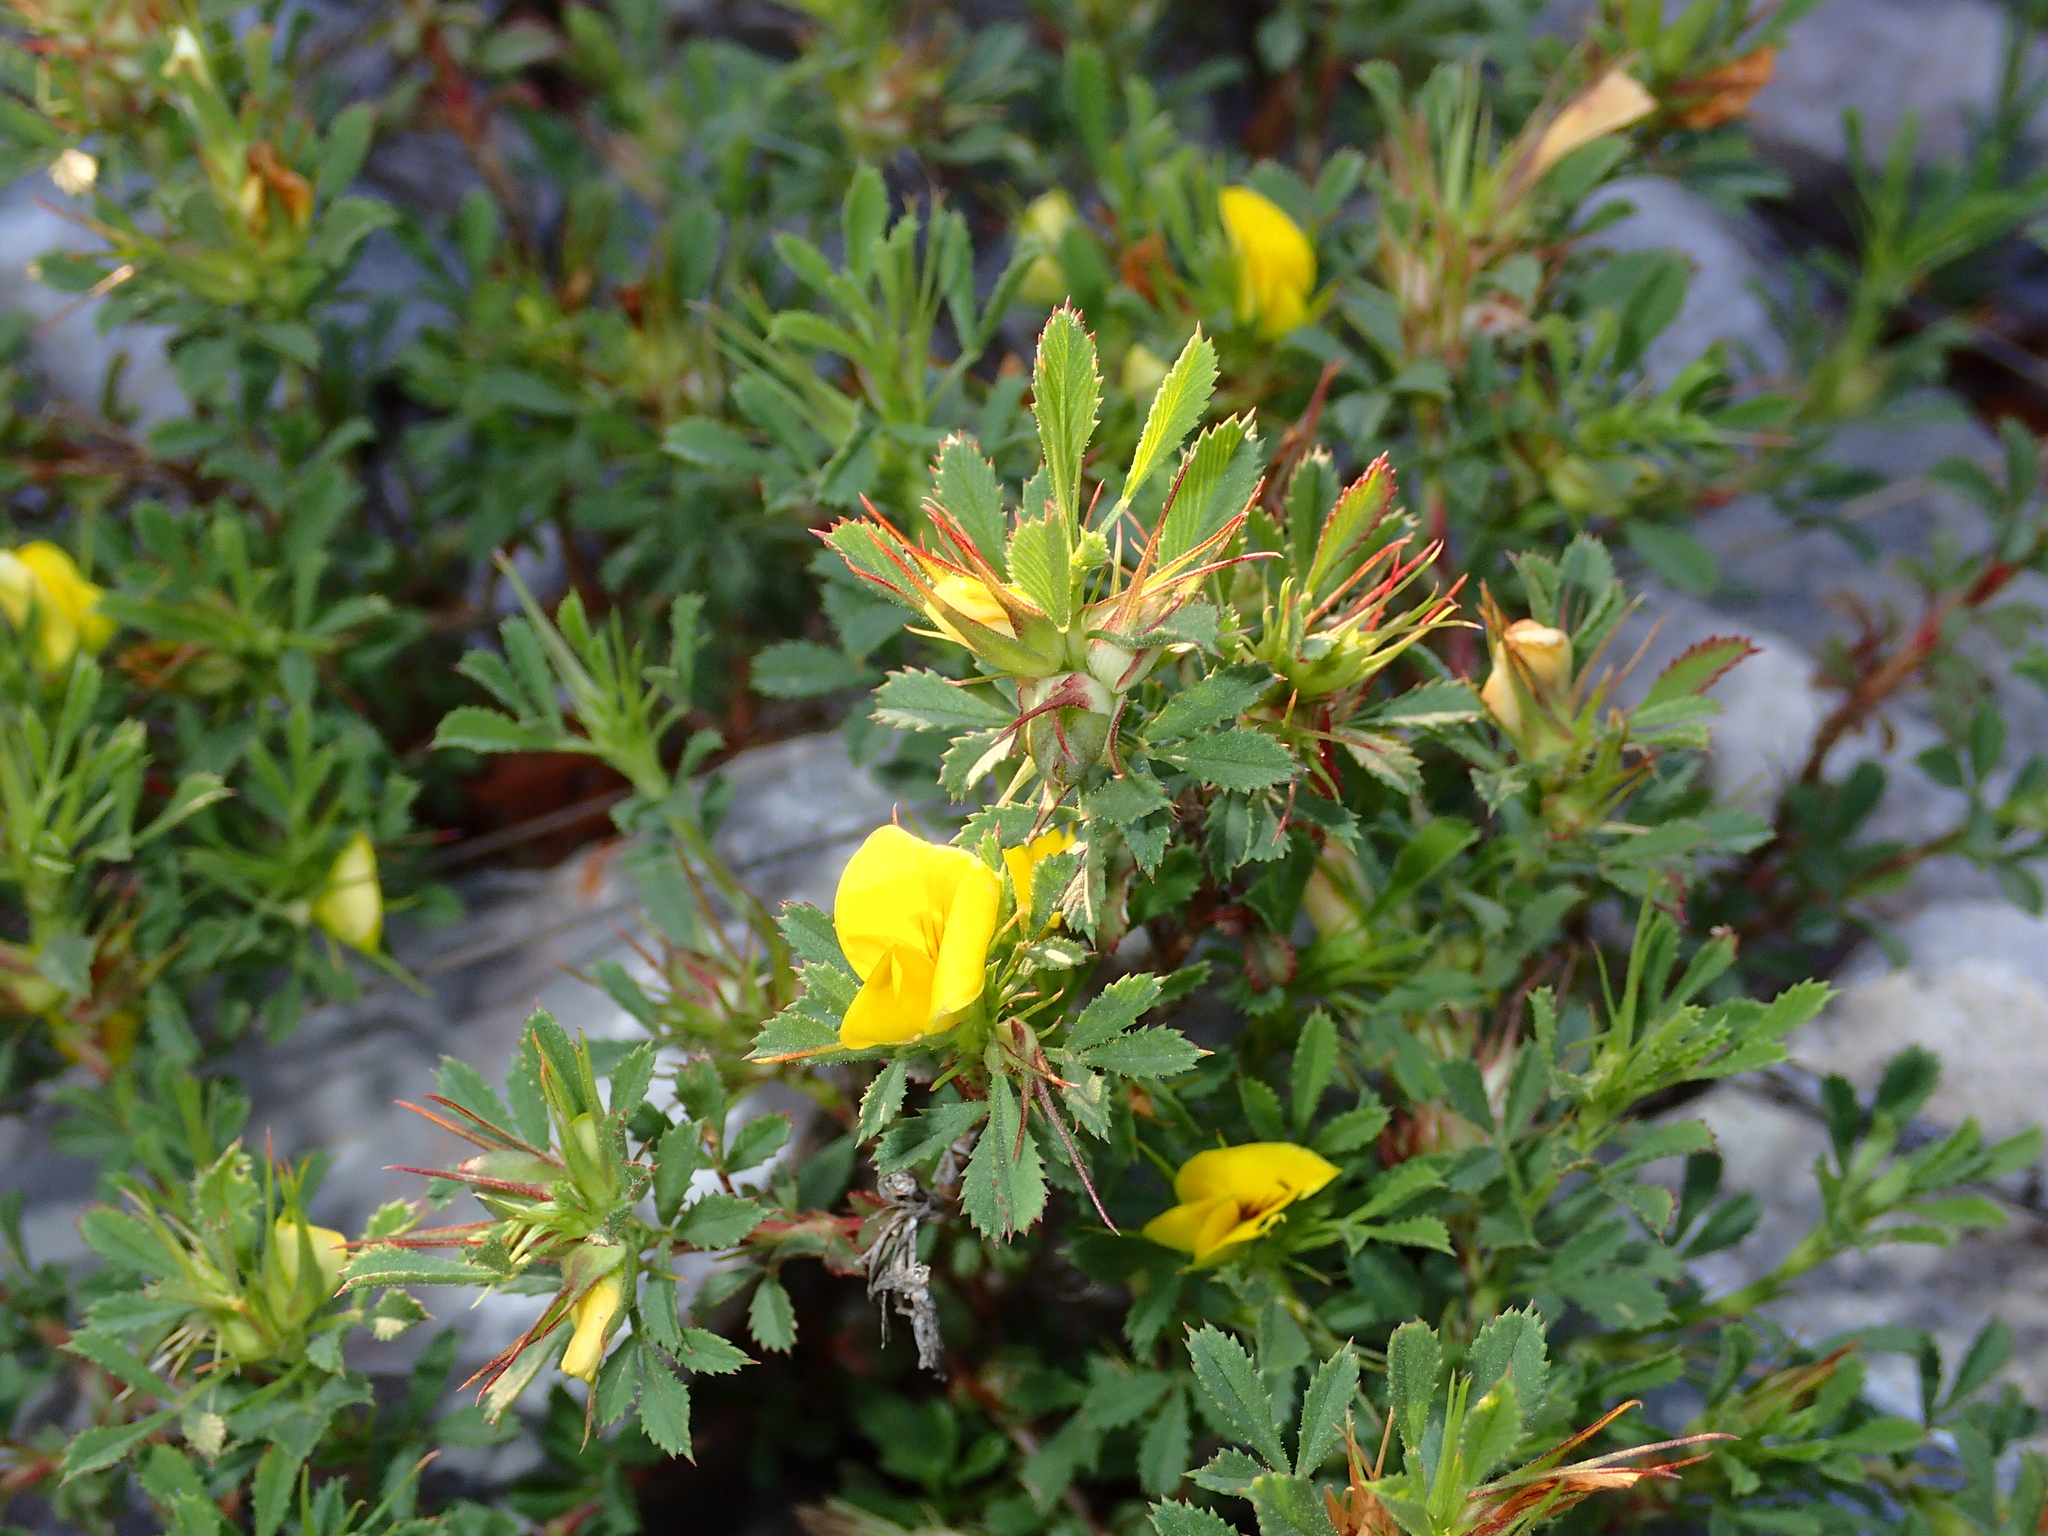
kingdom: Plantae
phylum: Tracheophyta
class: Magnoliopsida
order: Fabales
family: Fabaceae
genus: Ononis
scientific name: Ononis minutissima
